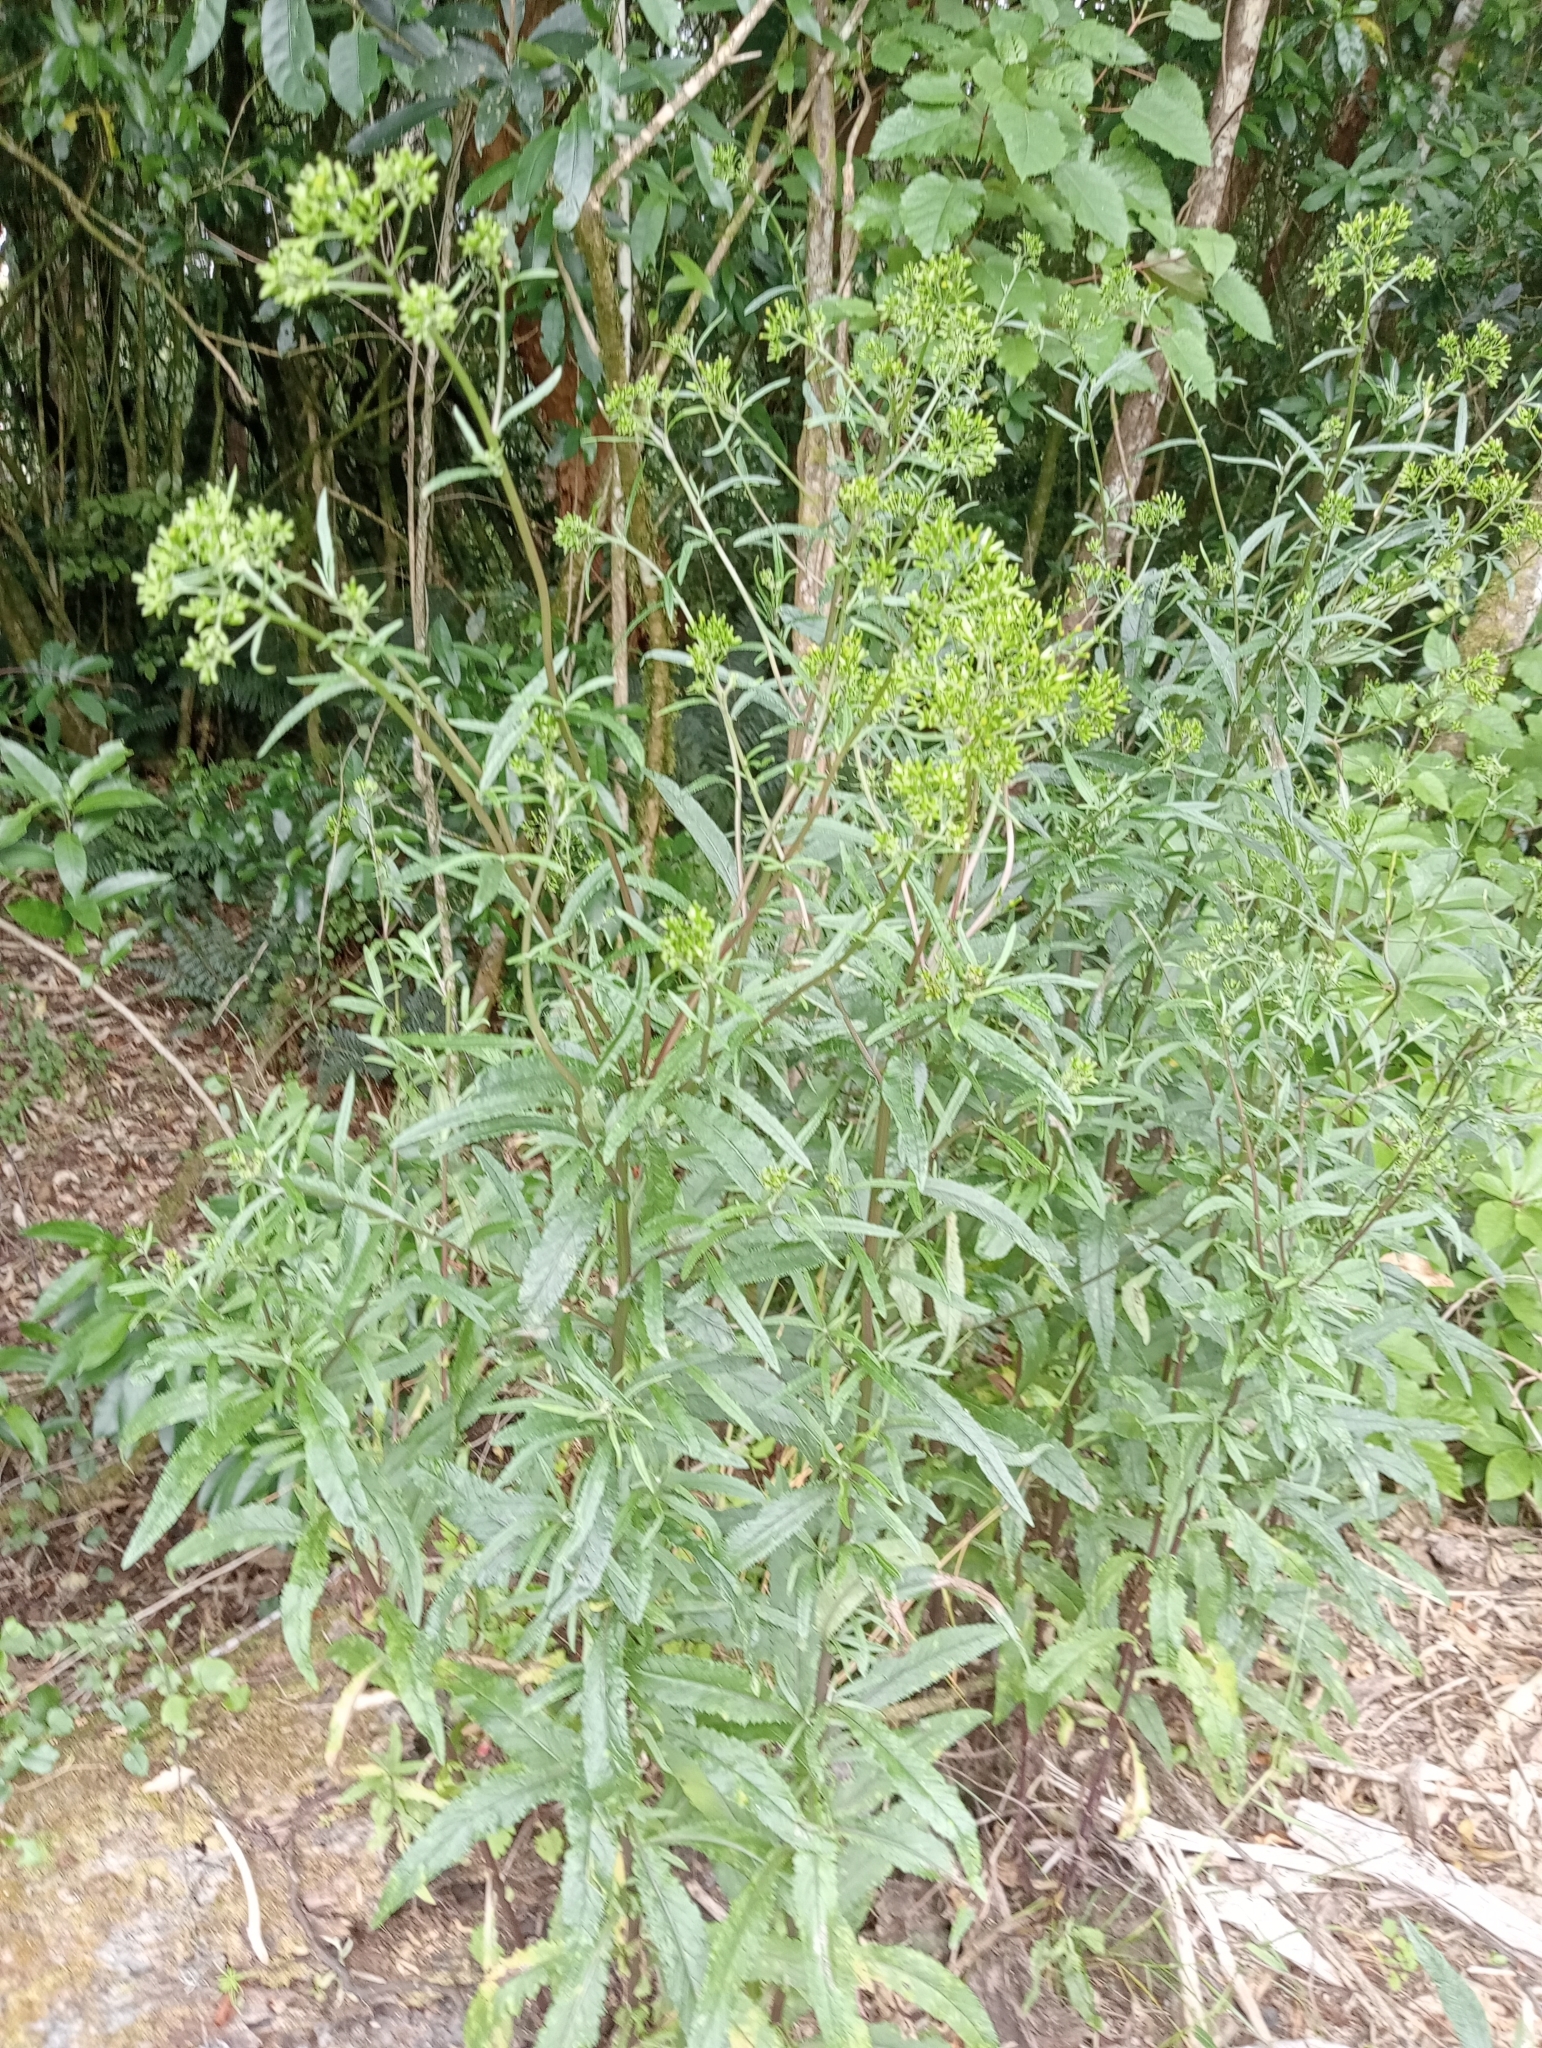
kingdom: Plantae
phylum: Tracheophyta
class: Magnoliopsida
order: Asterales
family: Asteraceae
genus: Senecio
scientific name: Senecio minimus
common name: Toothed fireweed
